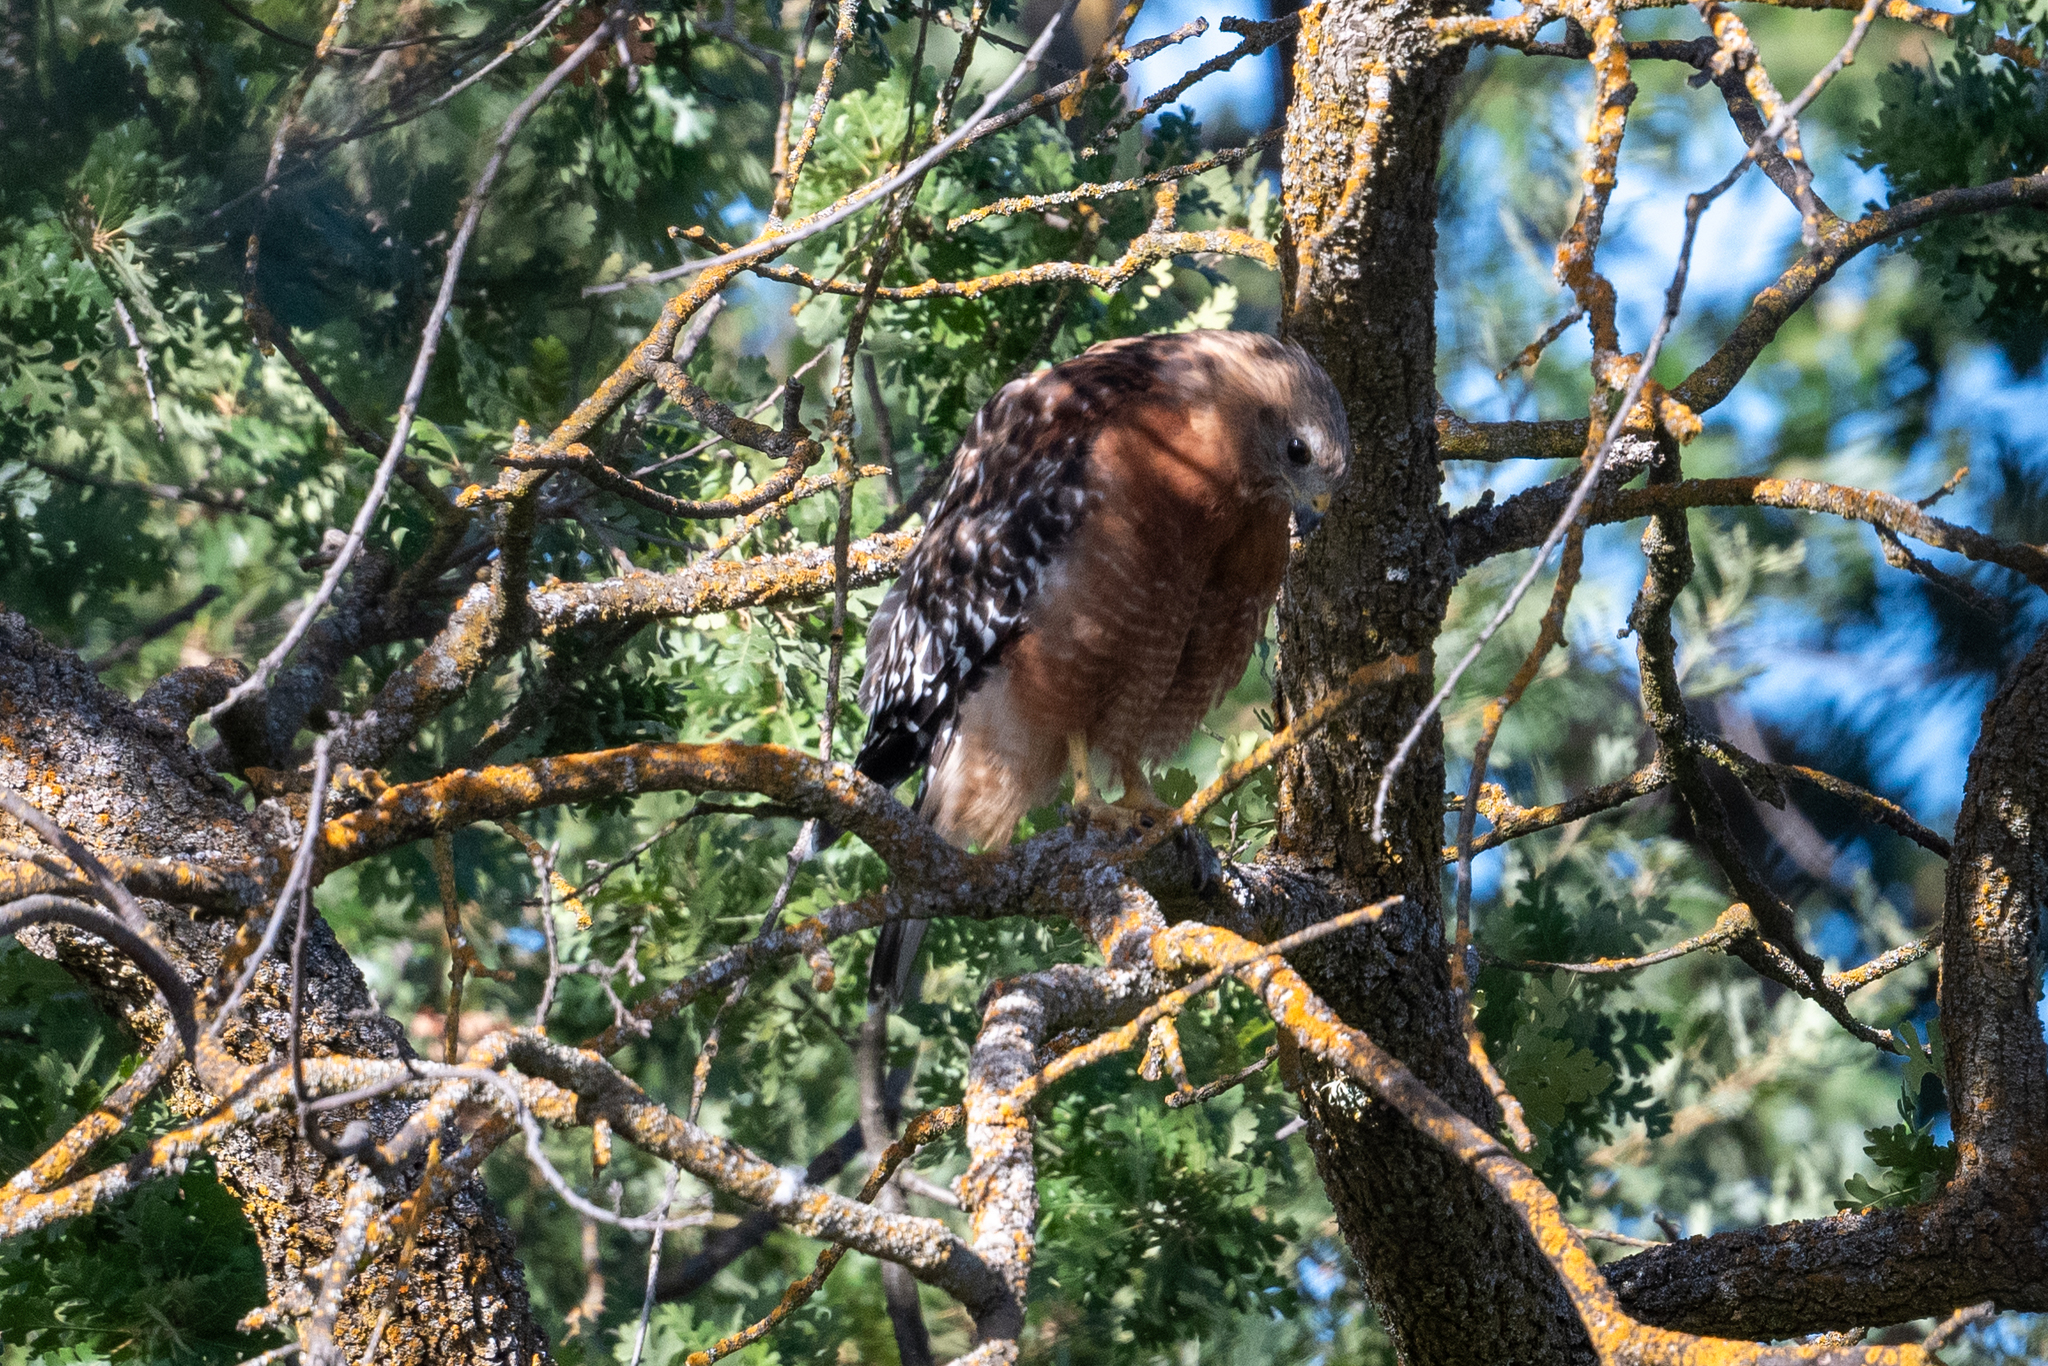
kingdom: Animalia
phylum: Chordata
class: Aves
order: Accipitriformes
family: Accipitridae
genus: Buteo
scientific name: Buteo lineatus
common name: Red-shouldered hawk
